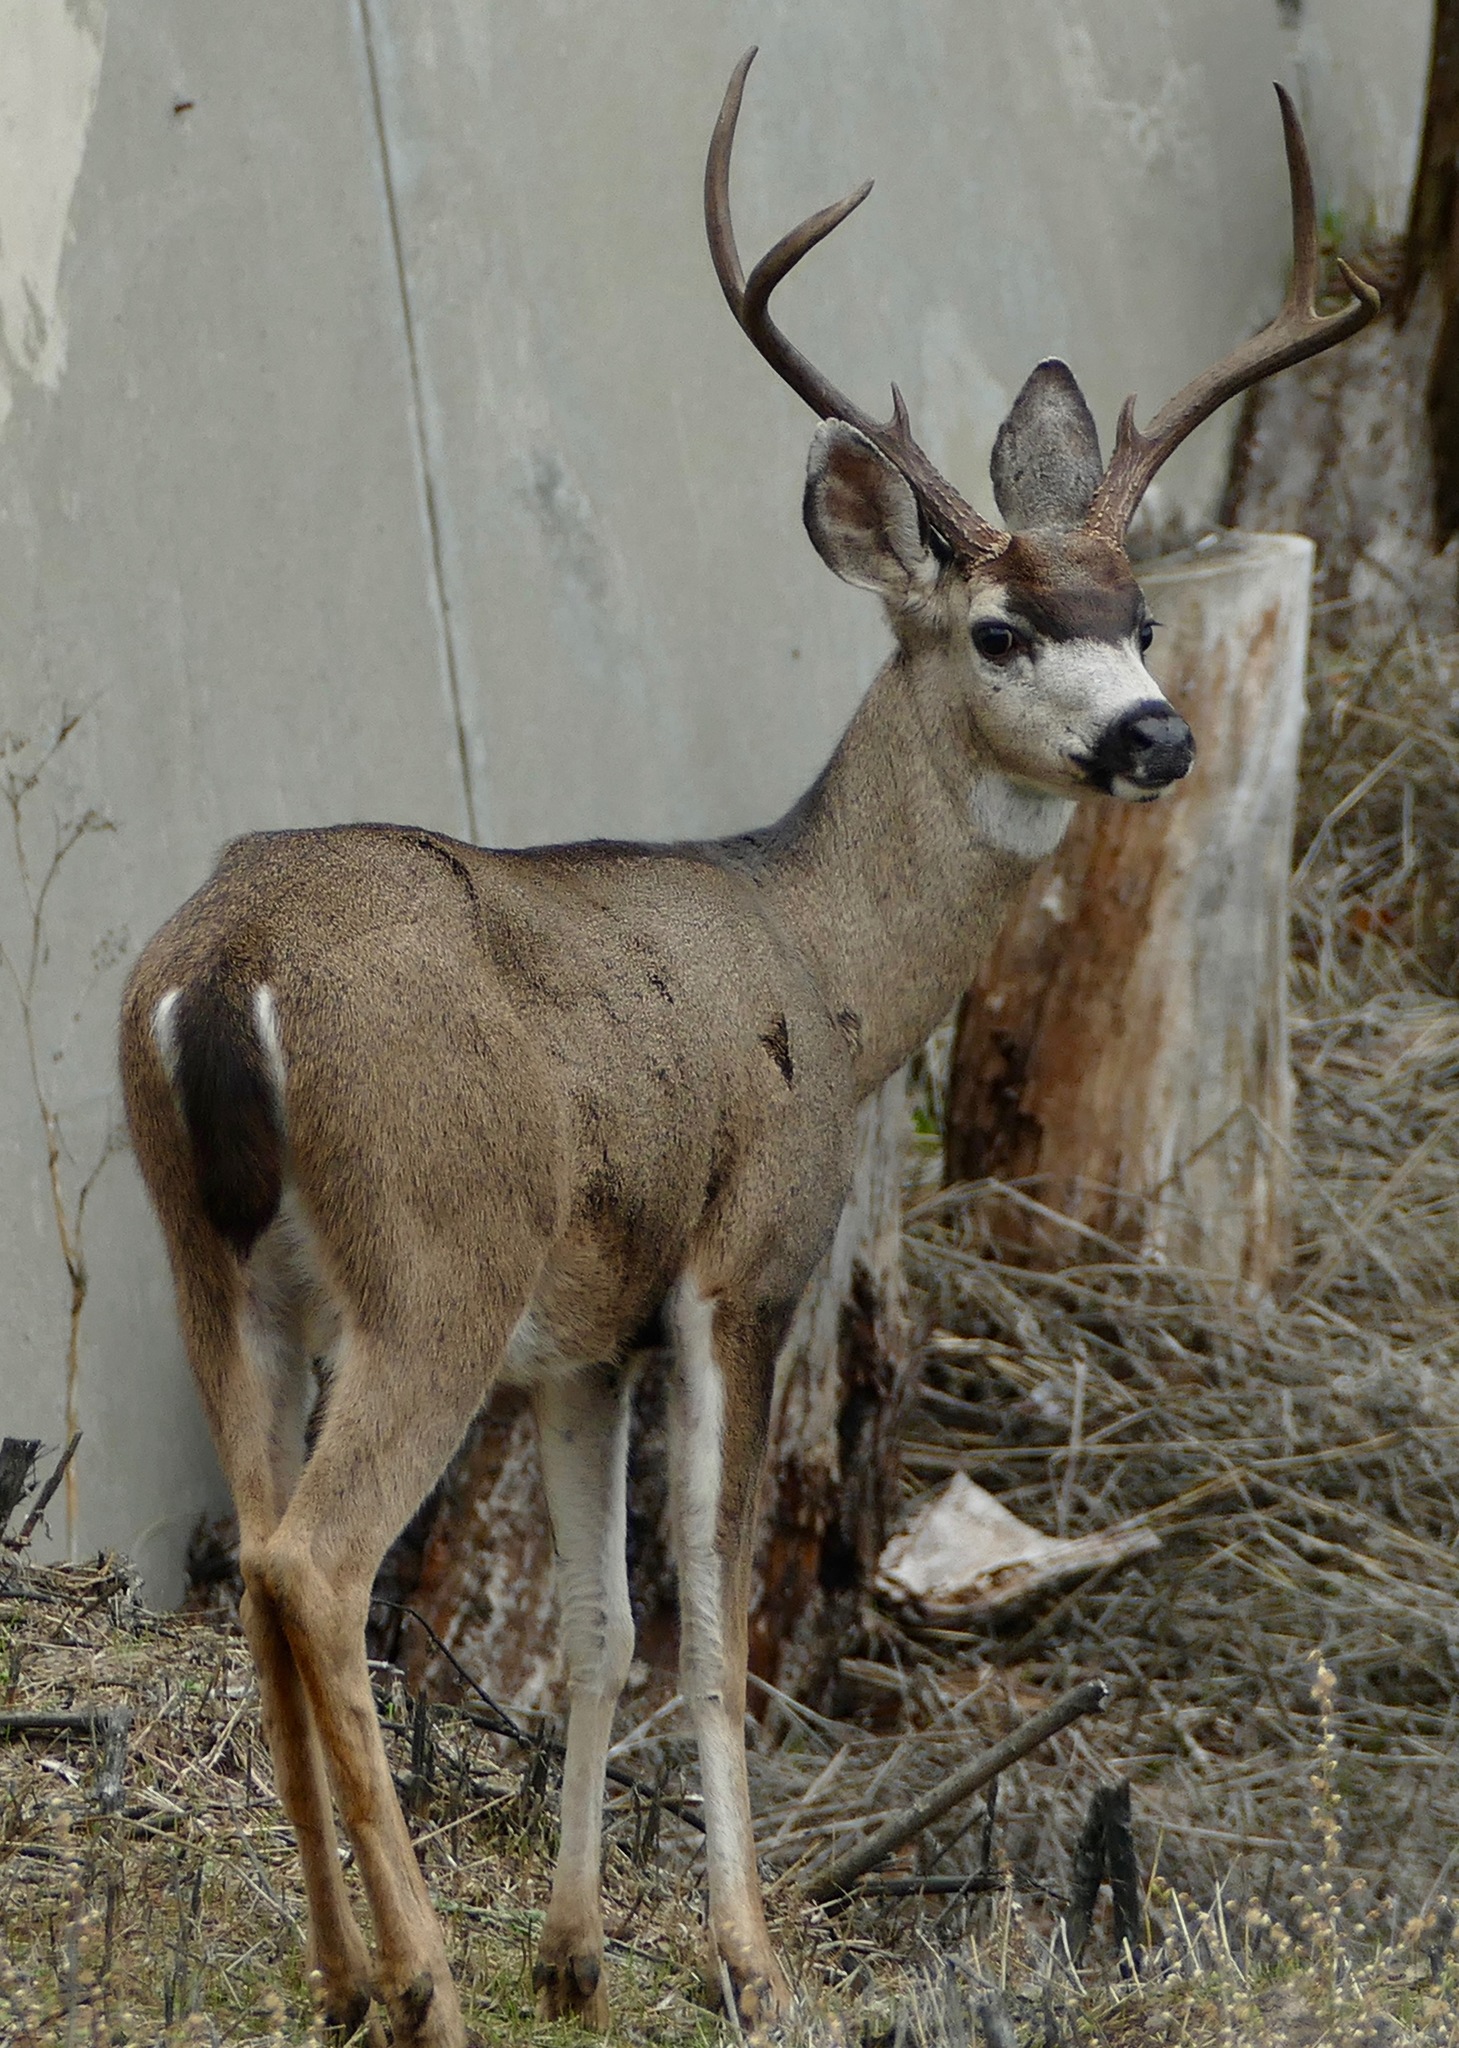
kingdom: Animalia
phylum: Chordata
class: Mammalia
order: Artiodactyla
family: Cervidae
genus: Odocoileus
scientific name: Odocoileus hemionus
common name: Mule deer
